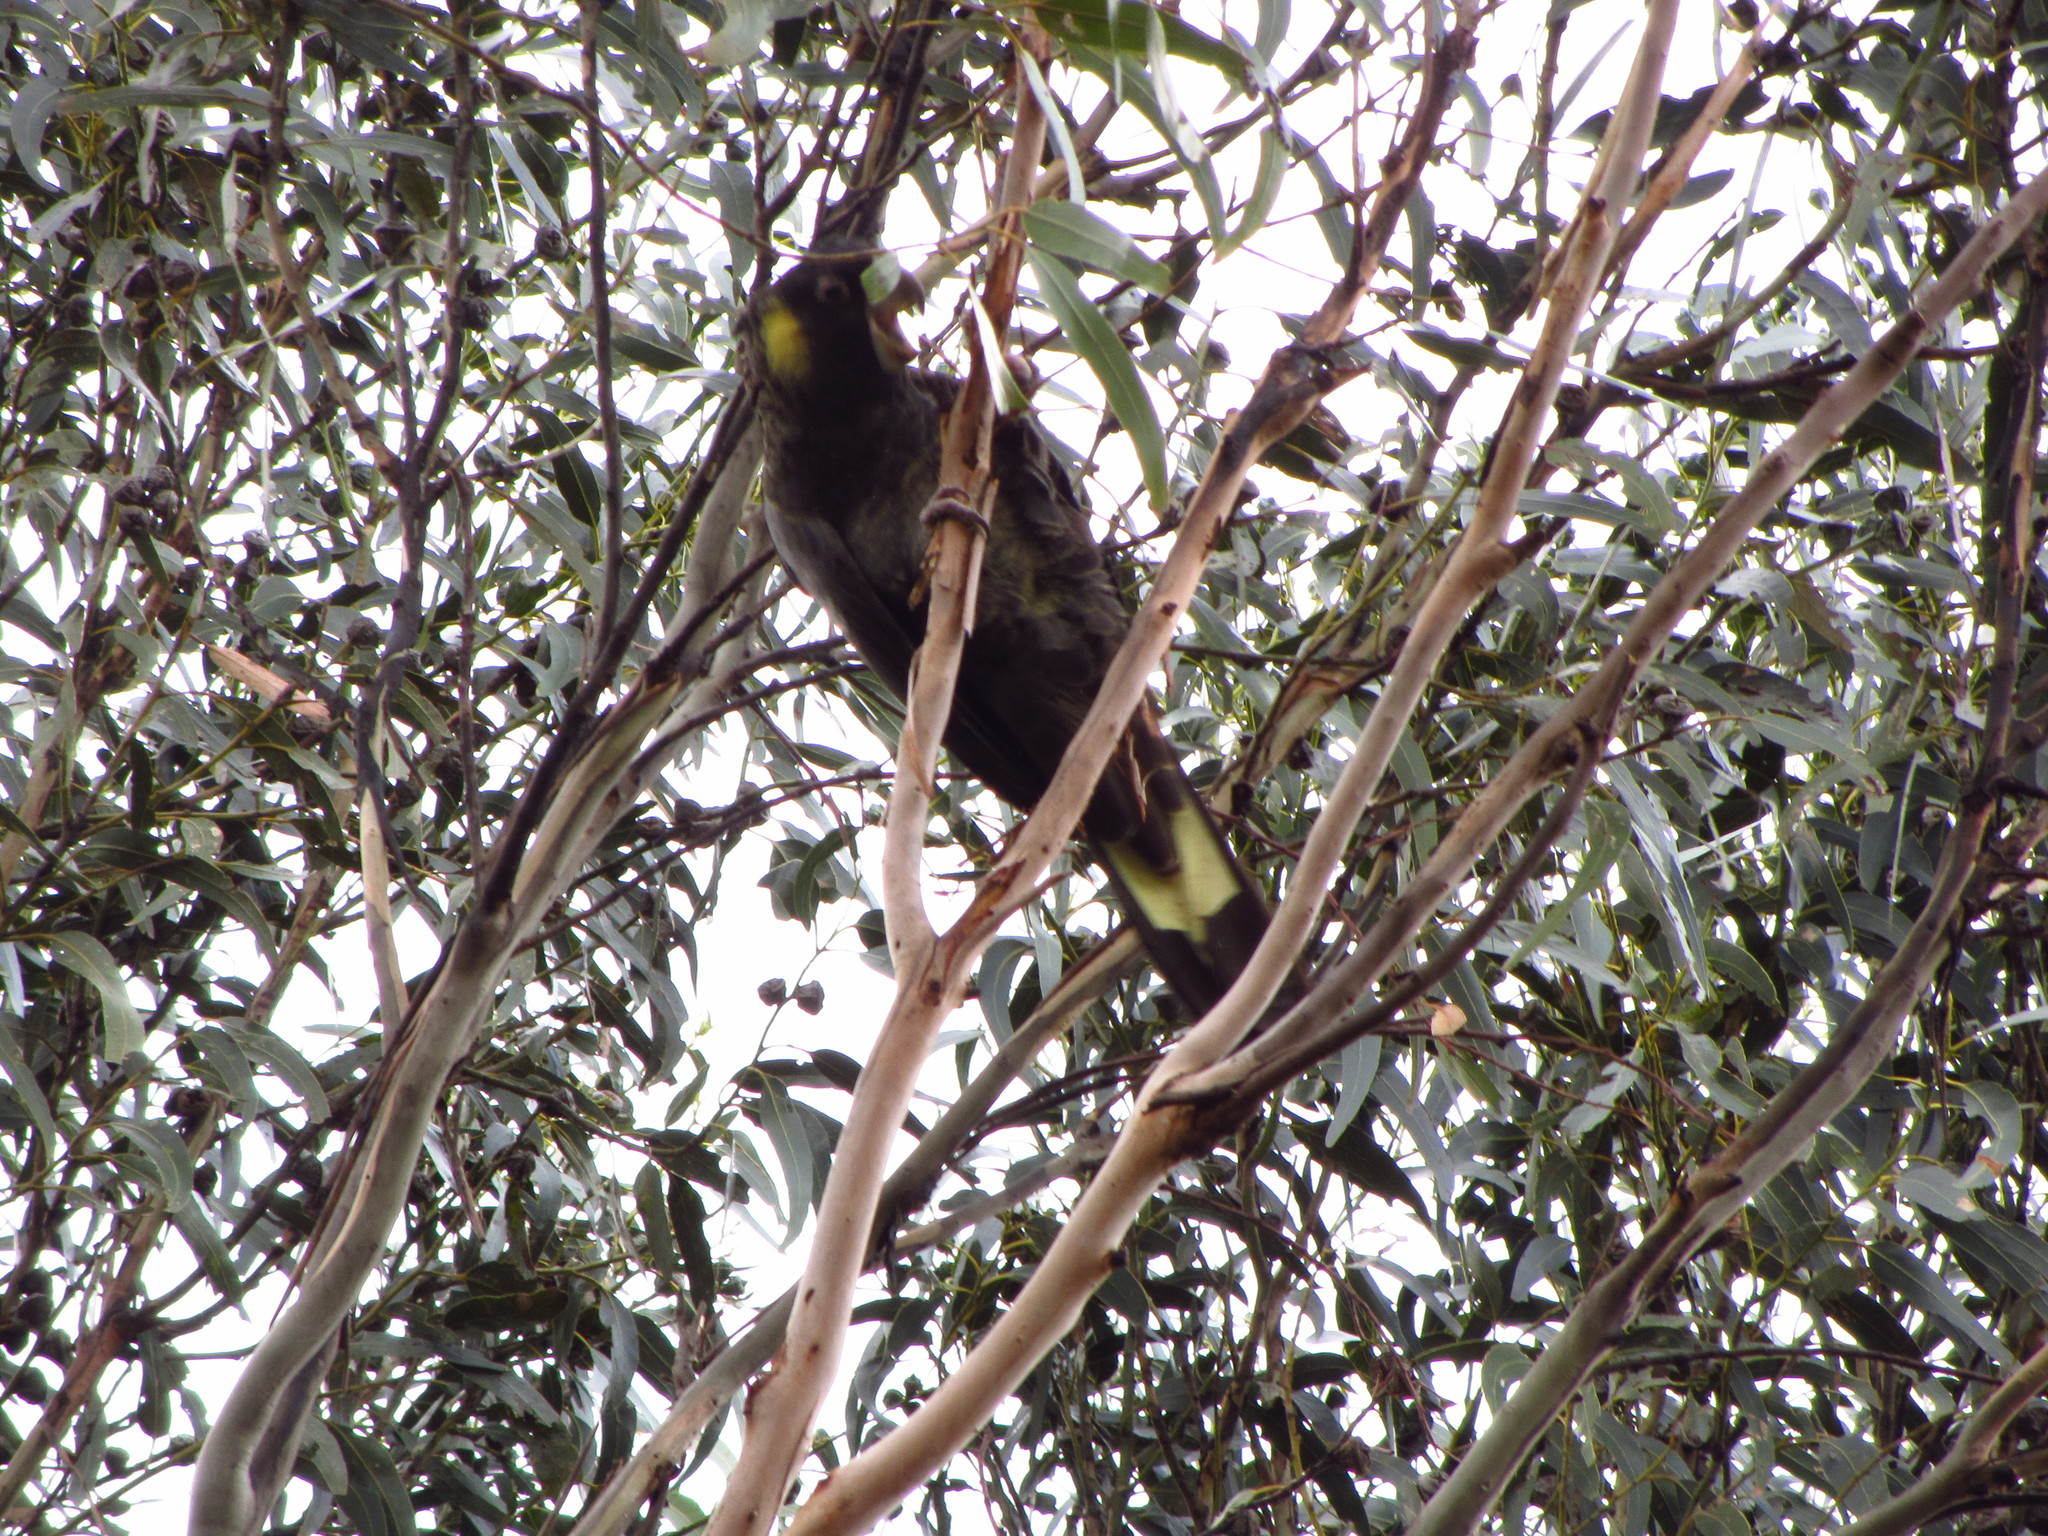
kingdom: Animalia
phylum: Chordata
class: Aves
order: Psittaciformes
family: Cacatuidae
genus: Zanda
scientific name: Zanda funerea
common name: Yellow-tailed black-cockatoo
